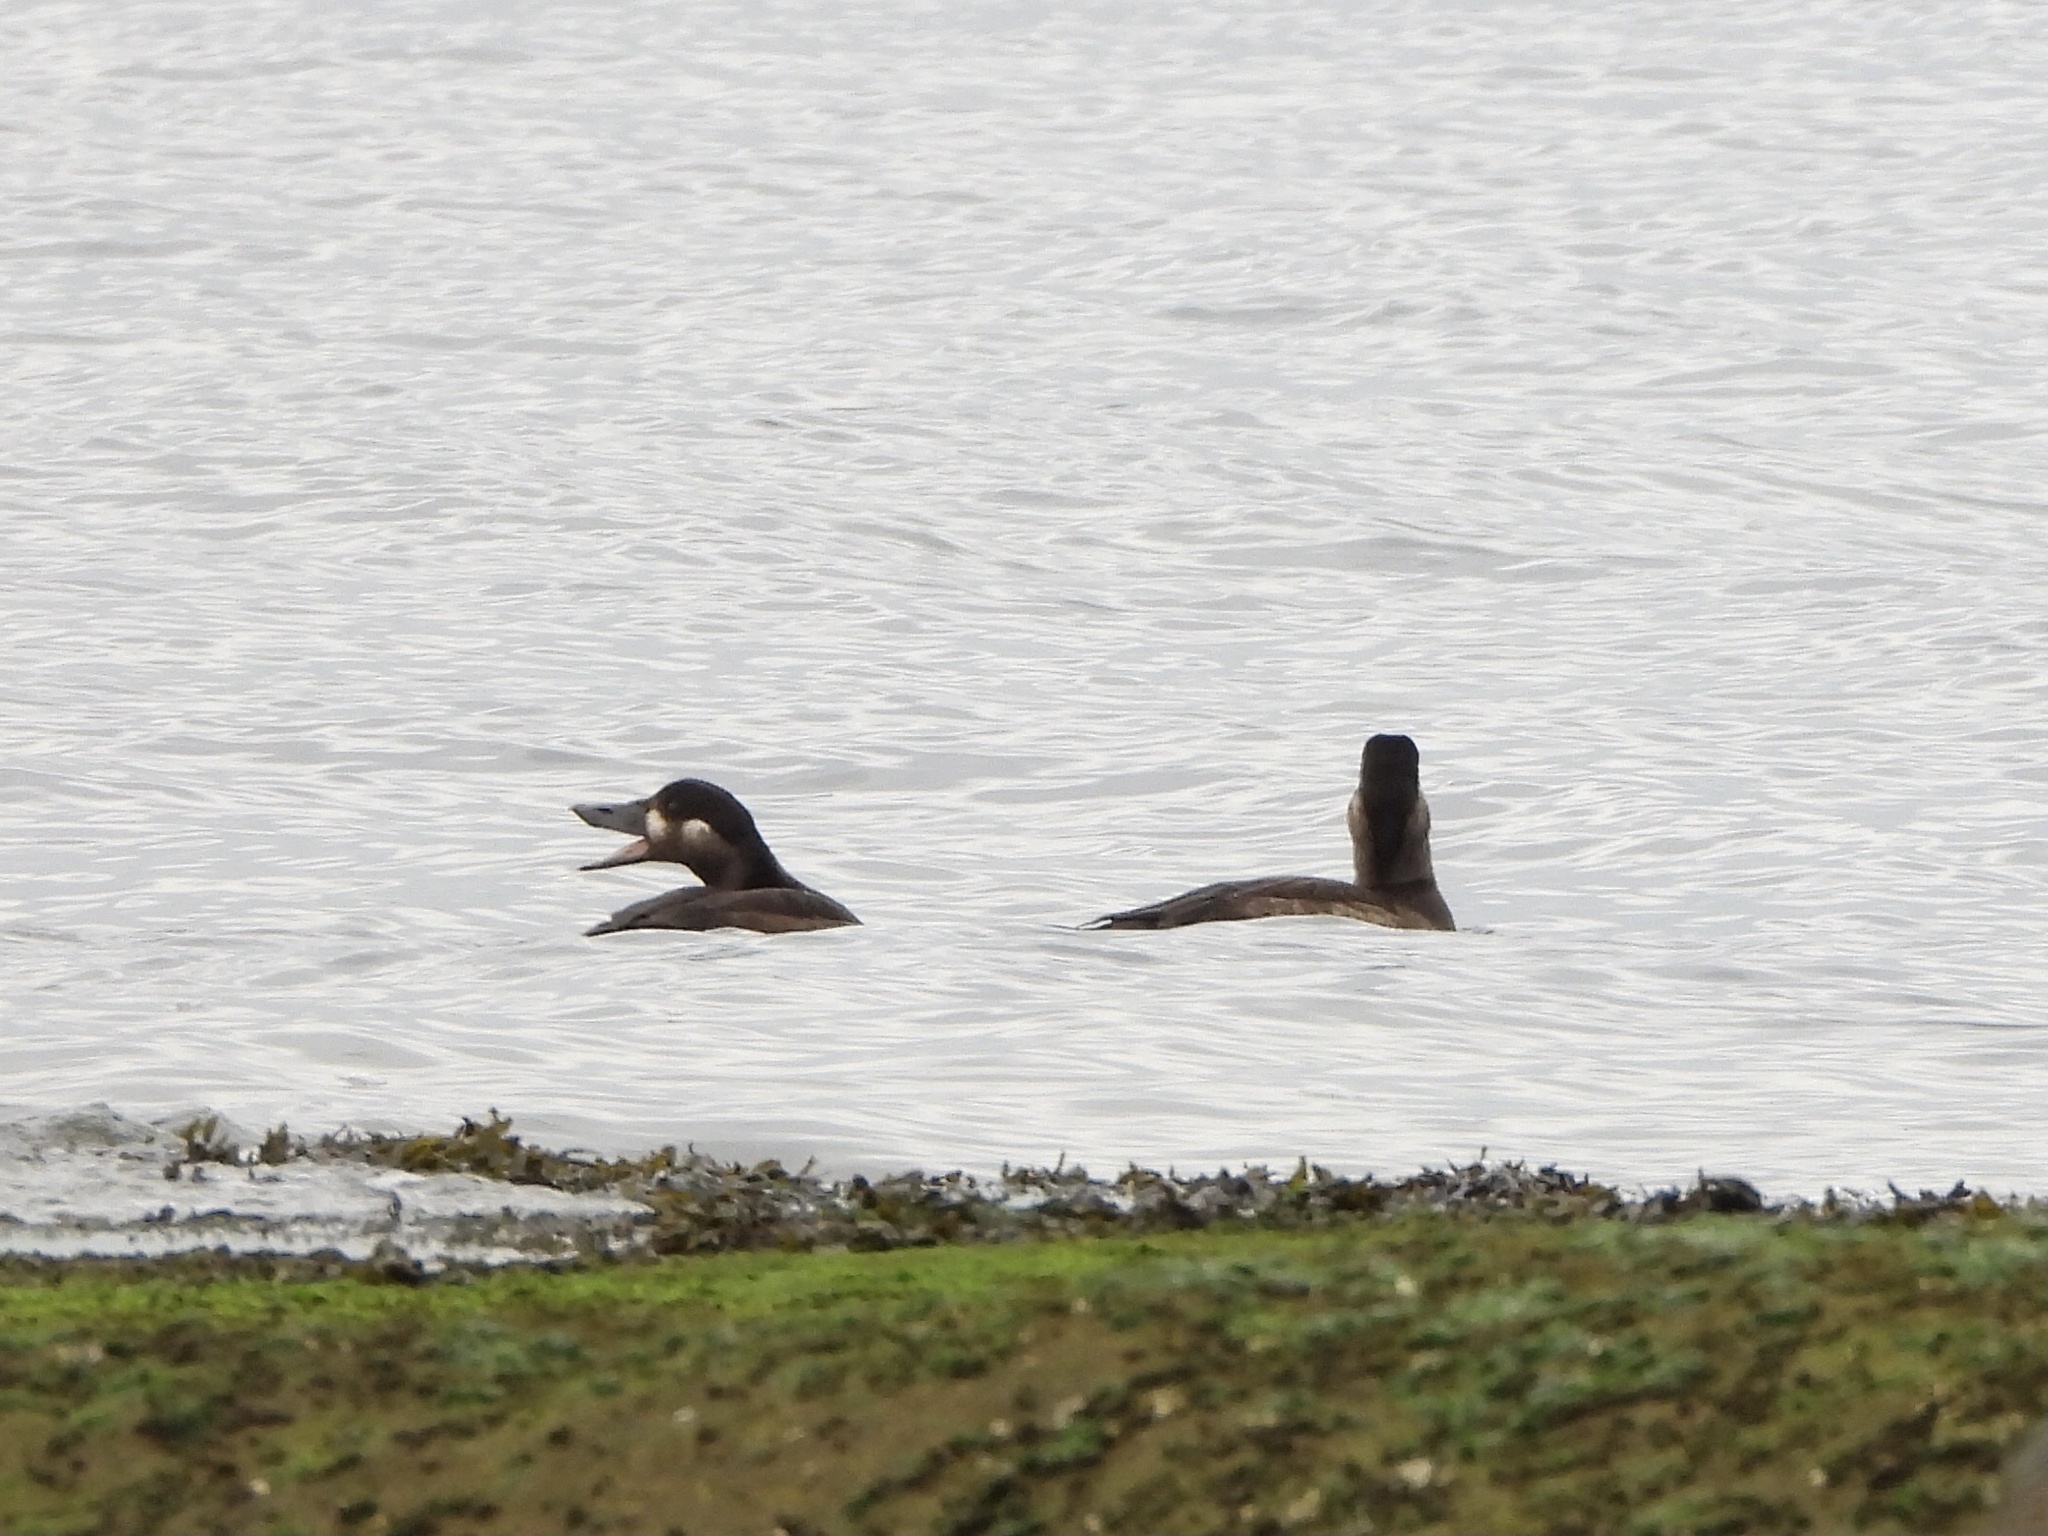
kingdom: Animalia
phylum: Chordata
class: Aves
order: Anseriformes
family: Anatidae
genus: Melanitta
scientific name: Melanitta perspicillata
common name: Surf scoter
